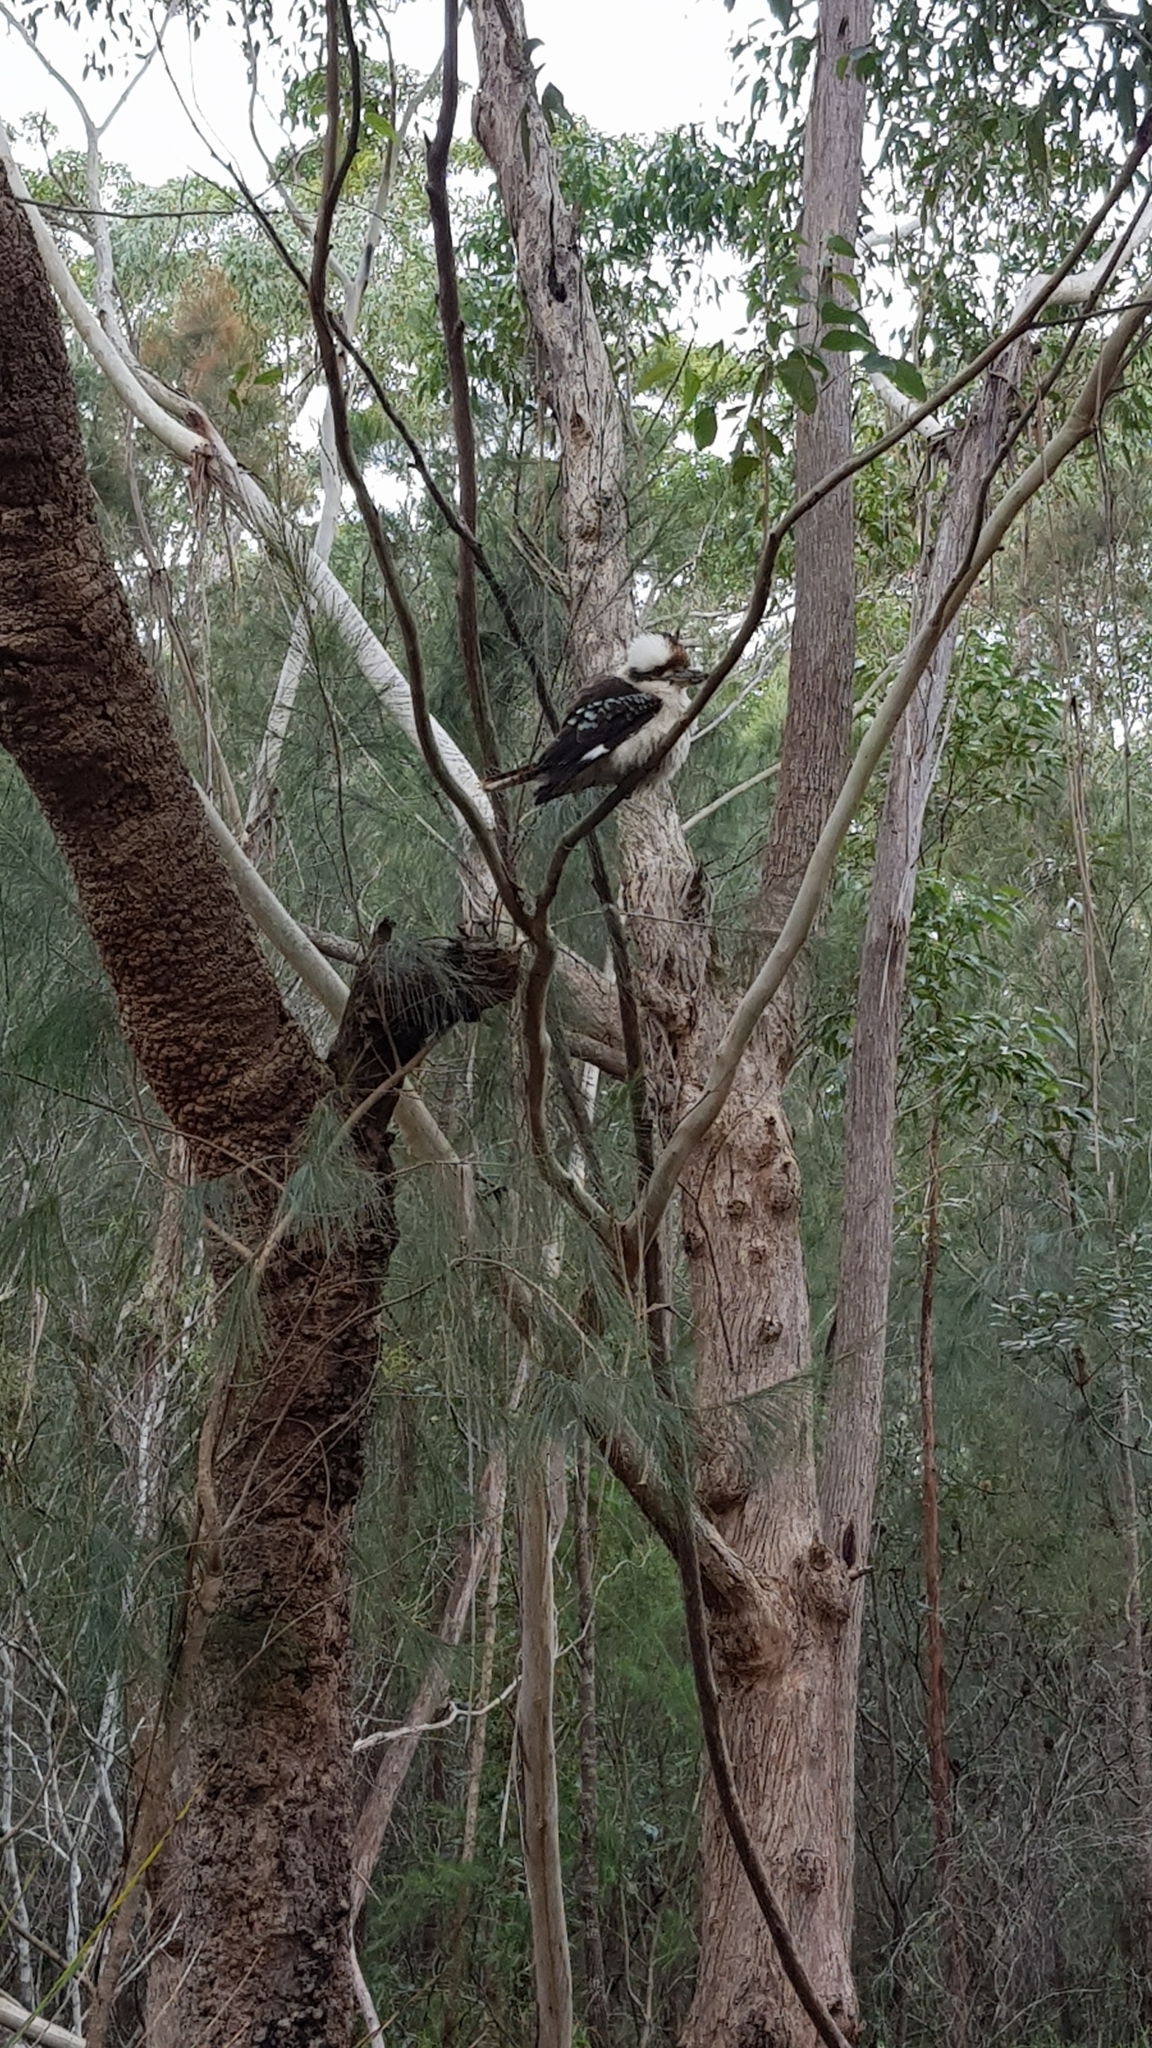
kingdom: Animalia
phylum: Chordata
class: Aves
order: Coraciiformes
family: Alcedinidae
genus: Dacelo
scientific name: Dacelo novaeguineae
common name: Laughing kookaburra
